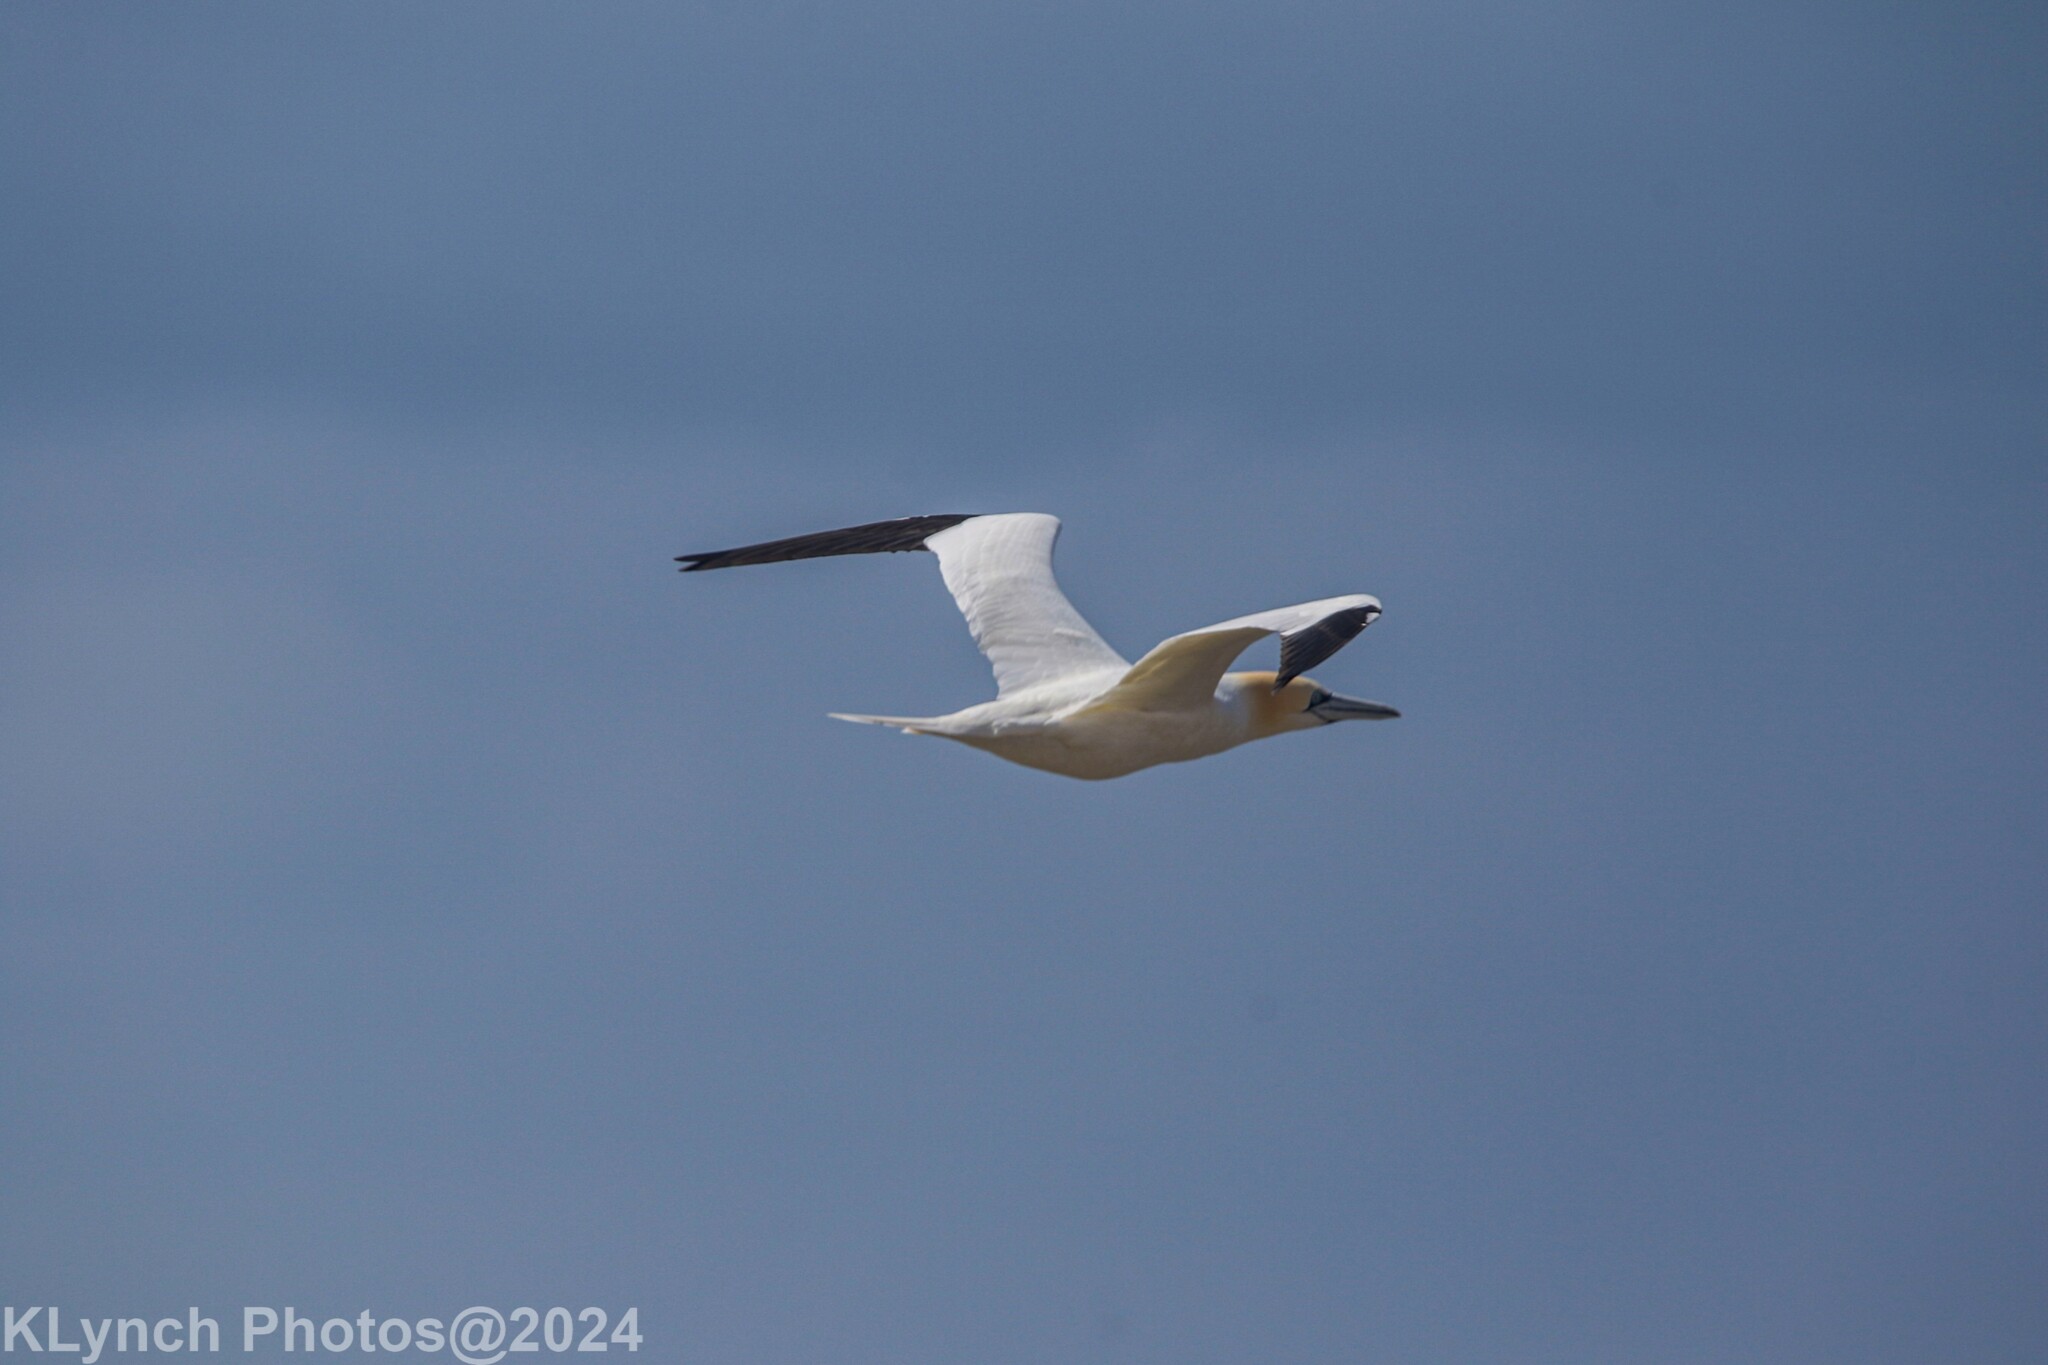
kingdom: Animalia
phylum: Chordata
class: Aves
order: Suliformes
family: Sulidae
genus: Morus
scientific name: Morus bassanus
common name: Northern gannet
